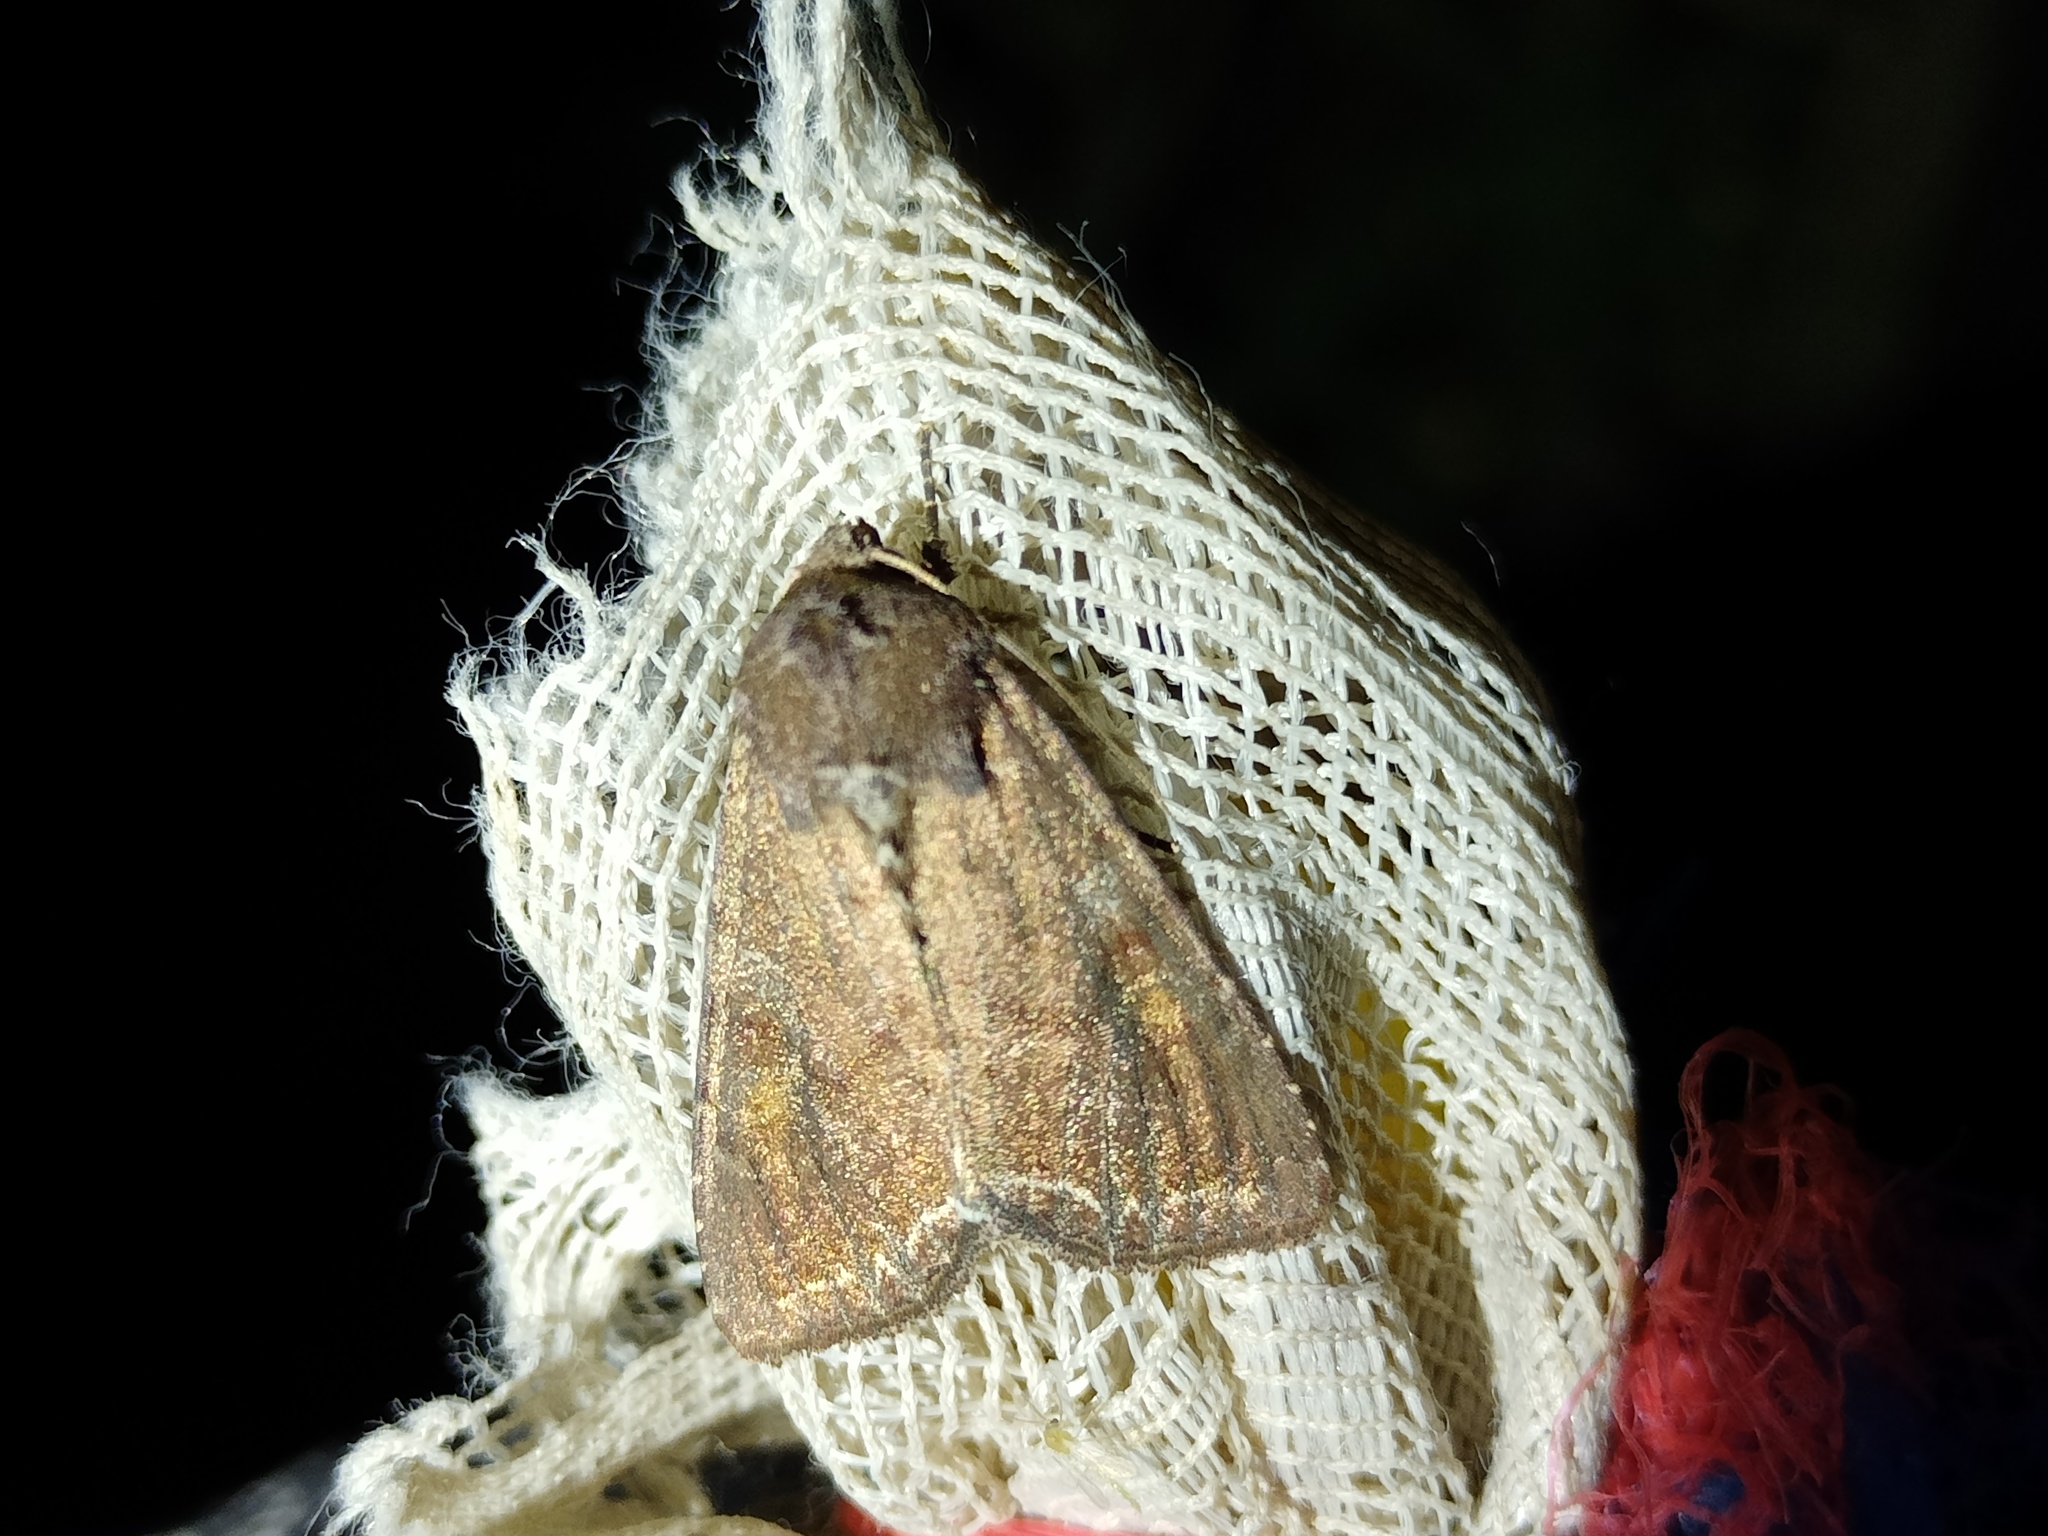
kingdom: Animalia
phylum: Arthropoda
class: Insecta
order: Lepidoptera
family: Noctuidae
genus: Lacanobia
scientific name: Lacanobia oleracea
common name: Bright-line brown-eye
